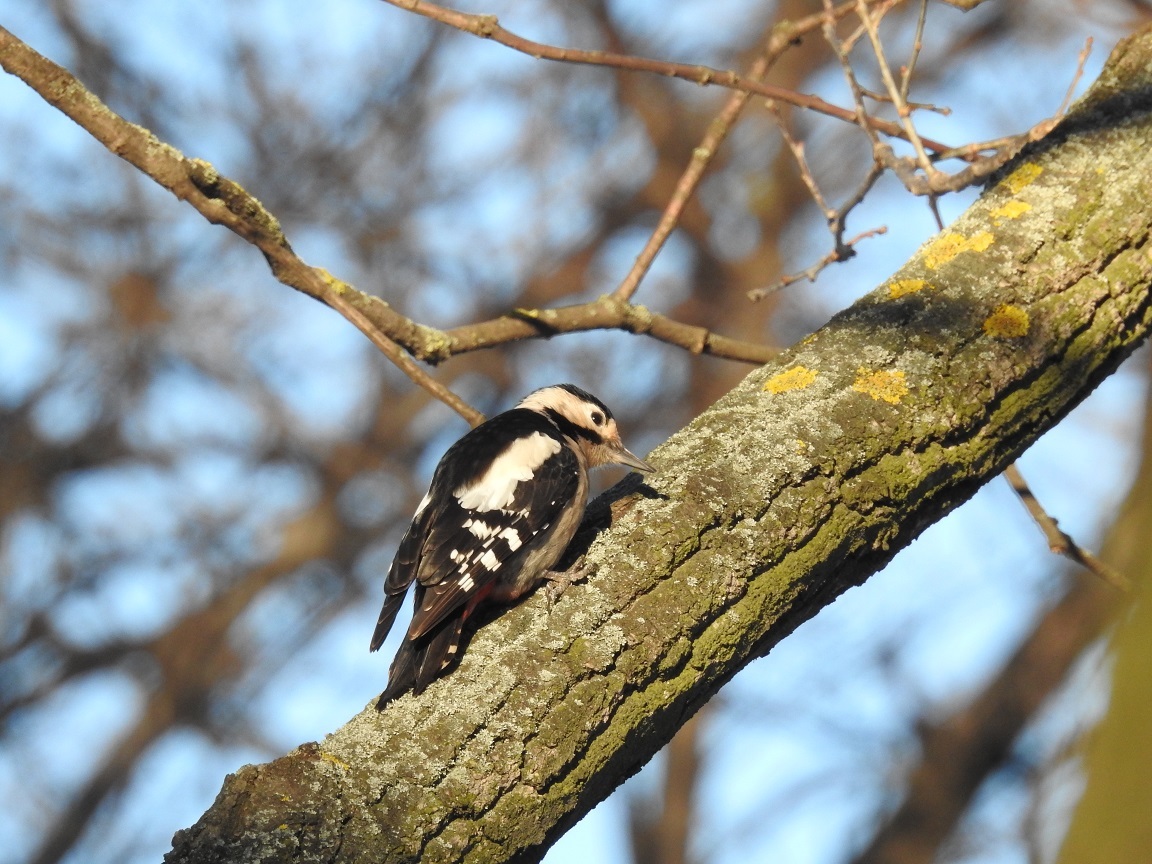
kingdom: Animalia
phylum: Chordata
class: Aves
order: Piciformes
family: Picidae
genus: Dendrocopos
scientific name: Dendrocopos syriacus
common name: Syrian woodpecker
